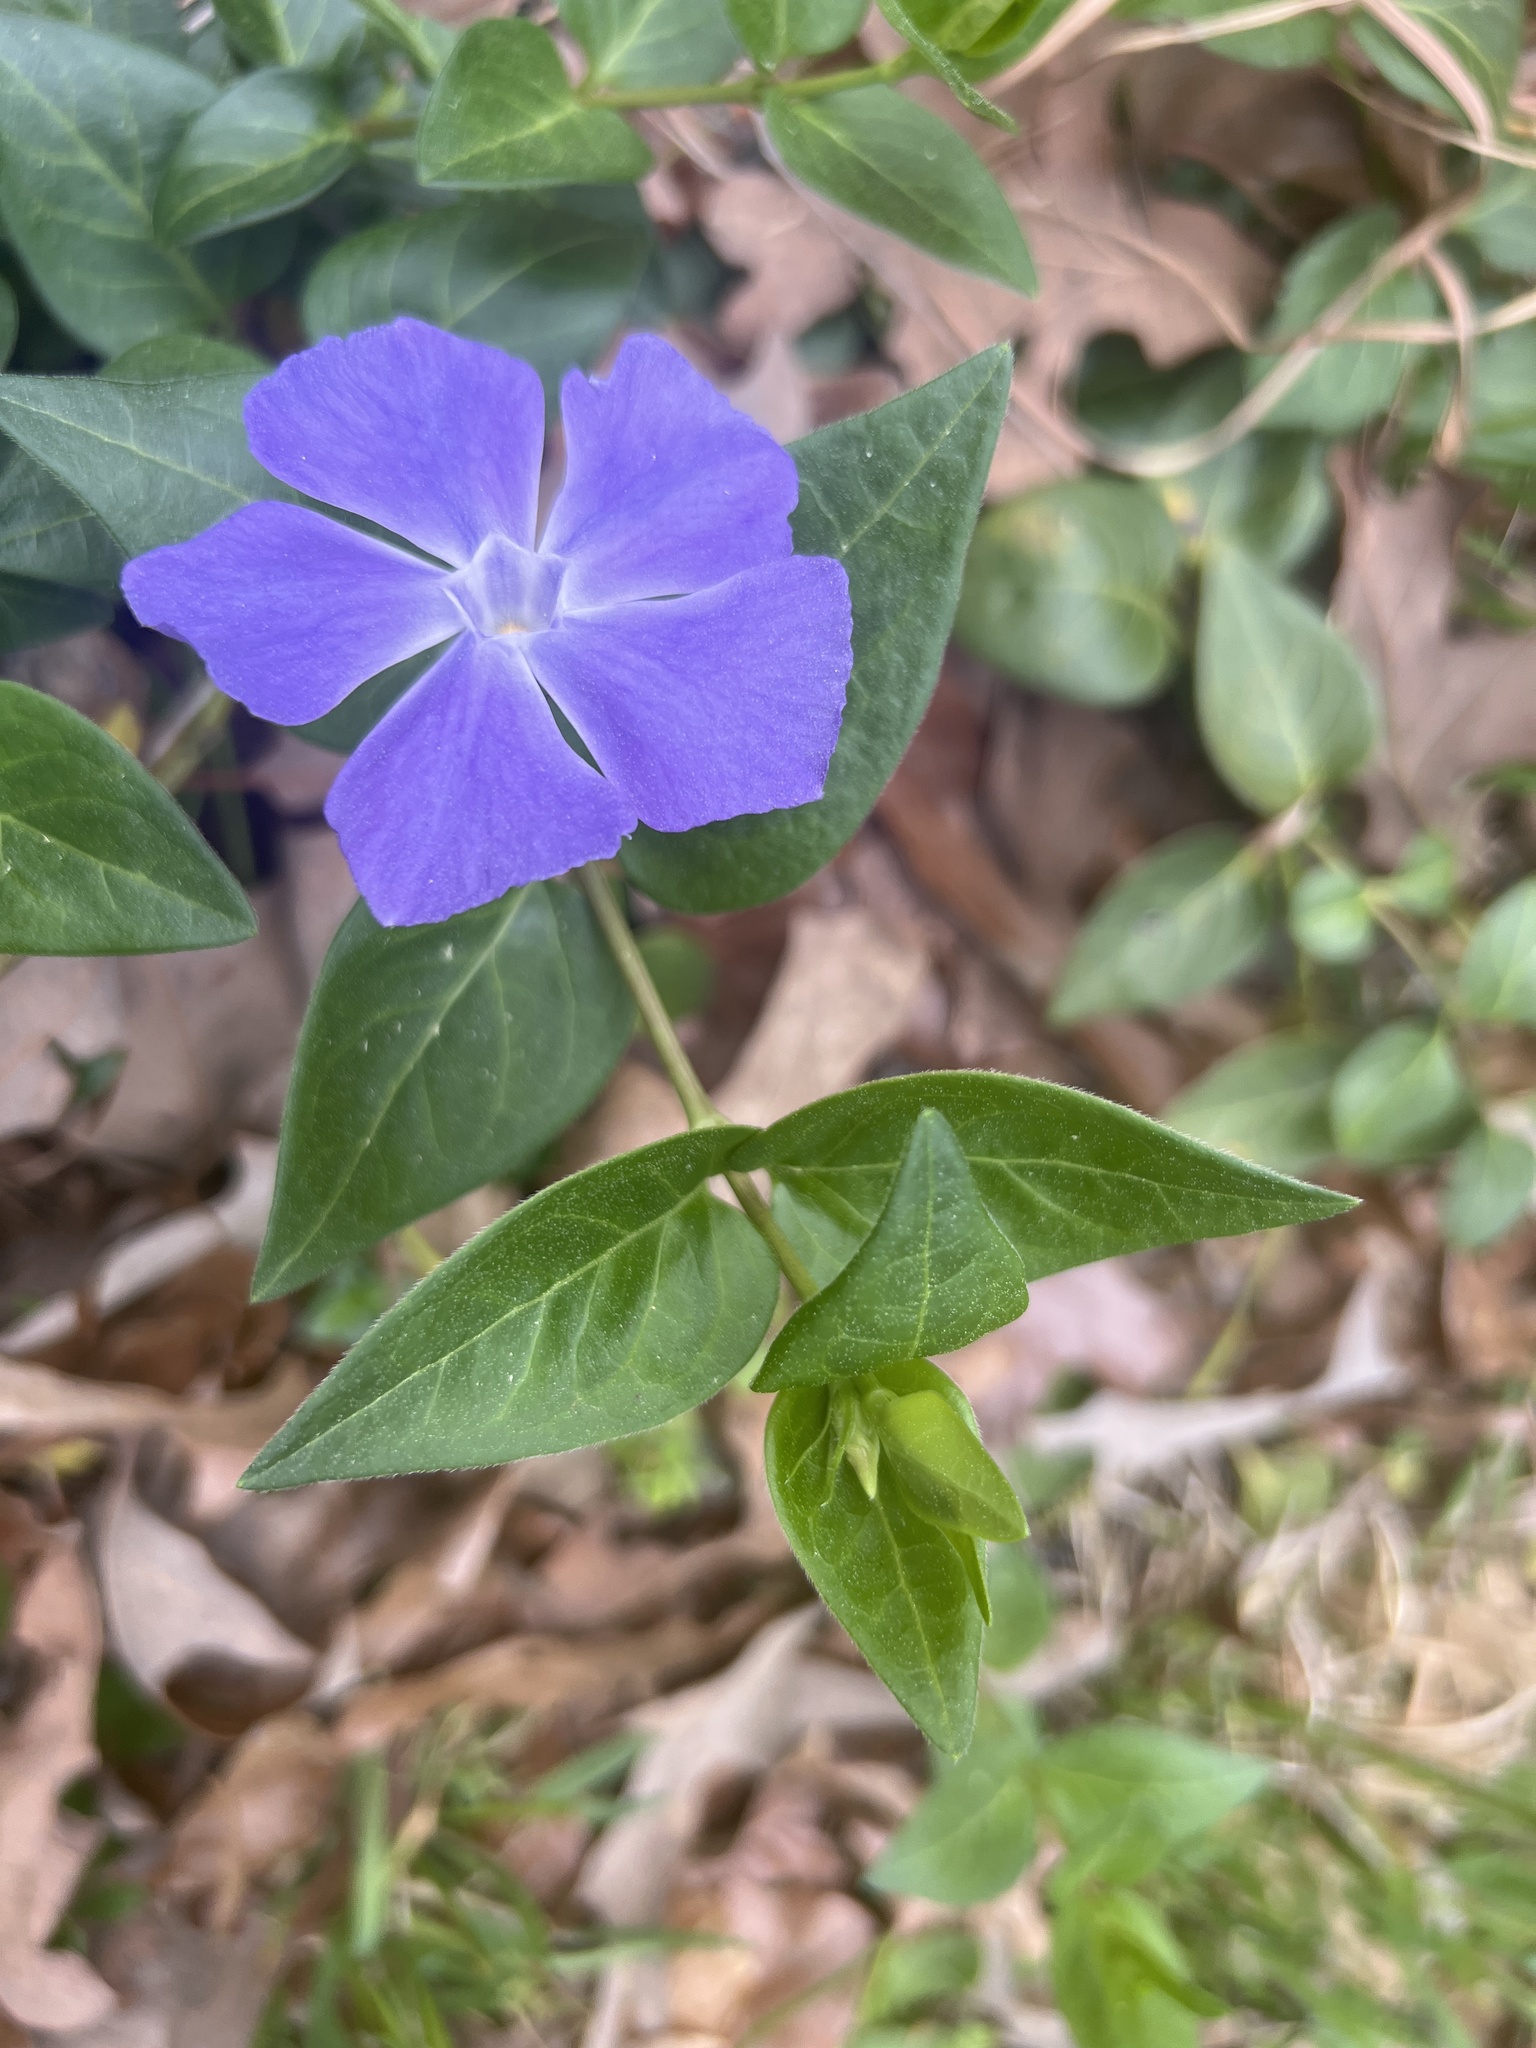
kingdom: Plantae
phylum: Tracheophyta
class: Magnoliopsida
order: Gentianales
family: Apocynaceae
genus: Vinca
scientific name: Vinca major
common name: Greater periwinkle
